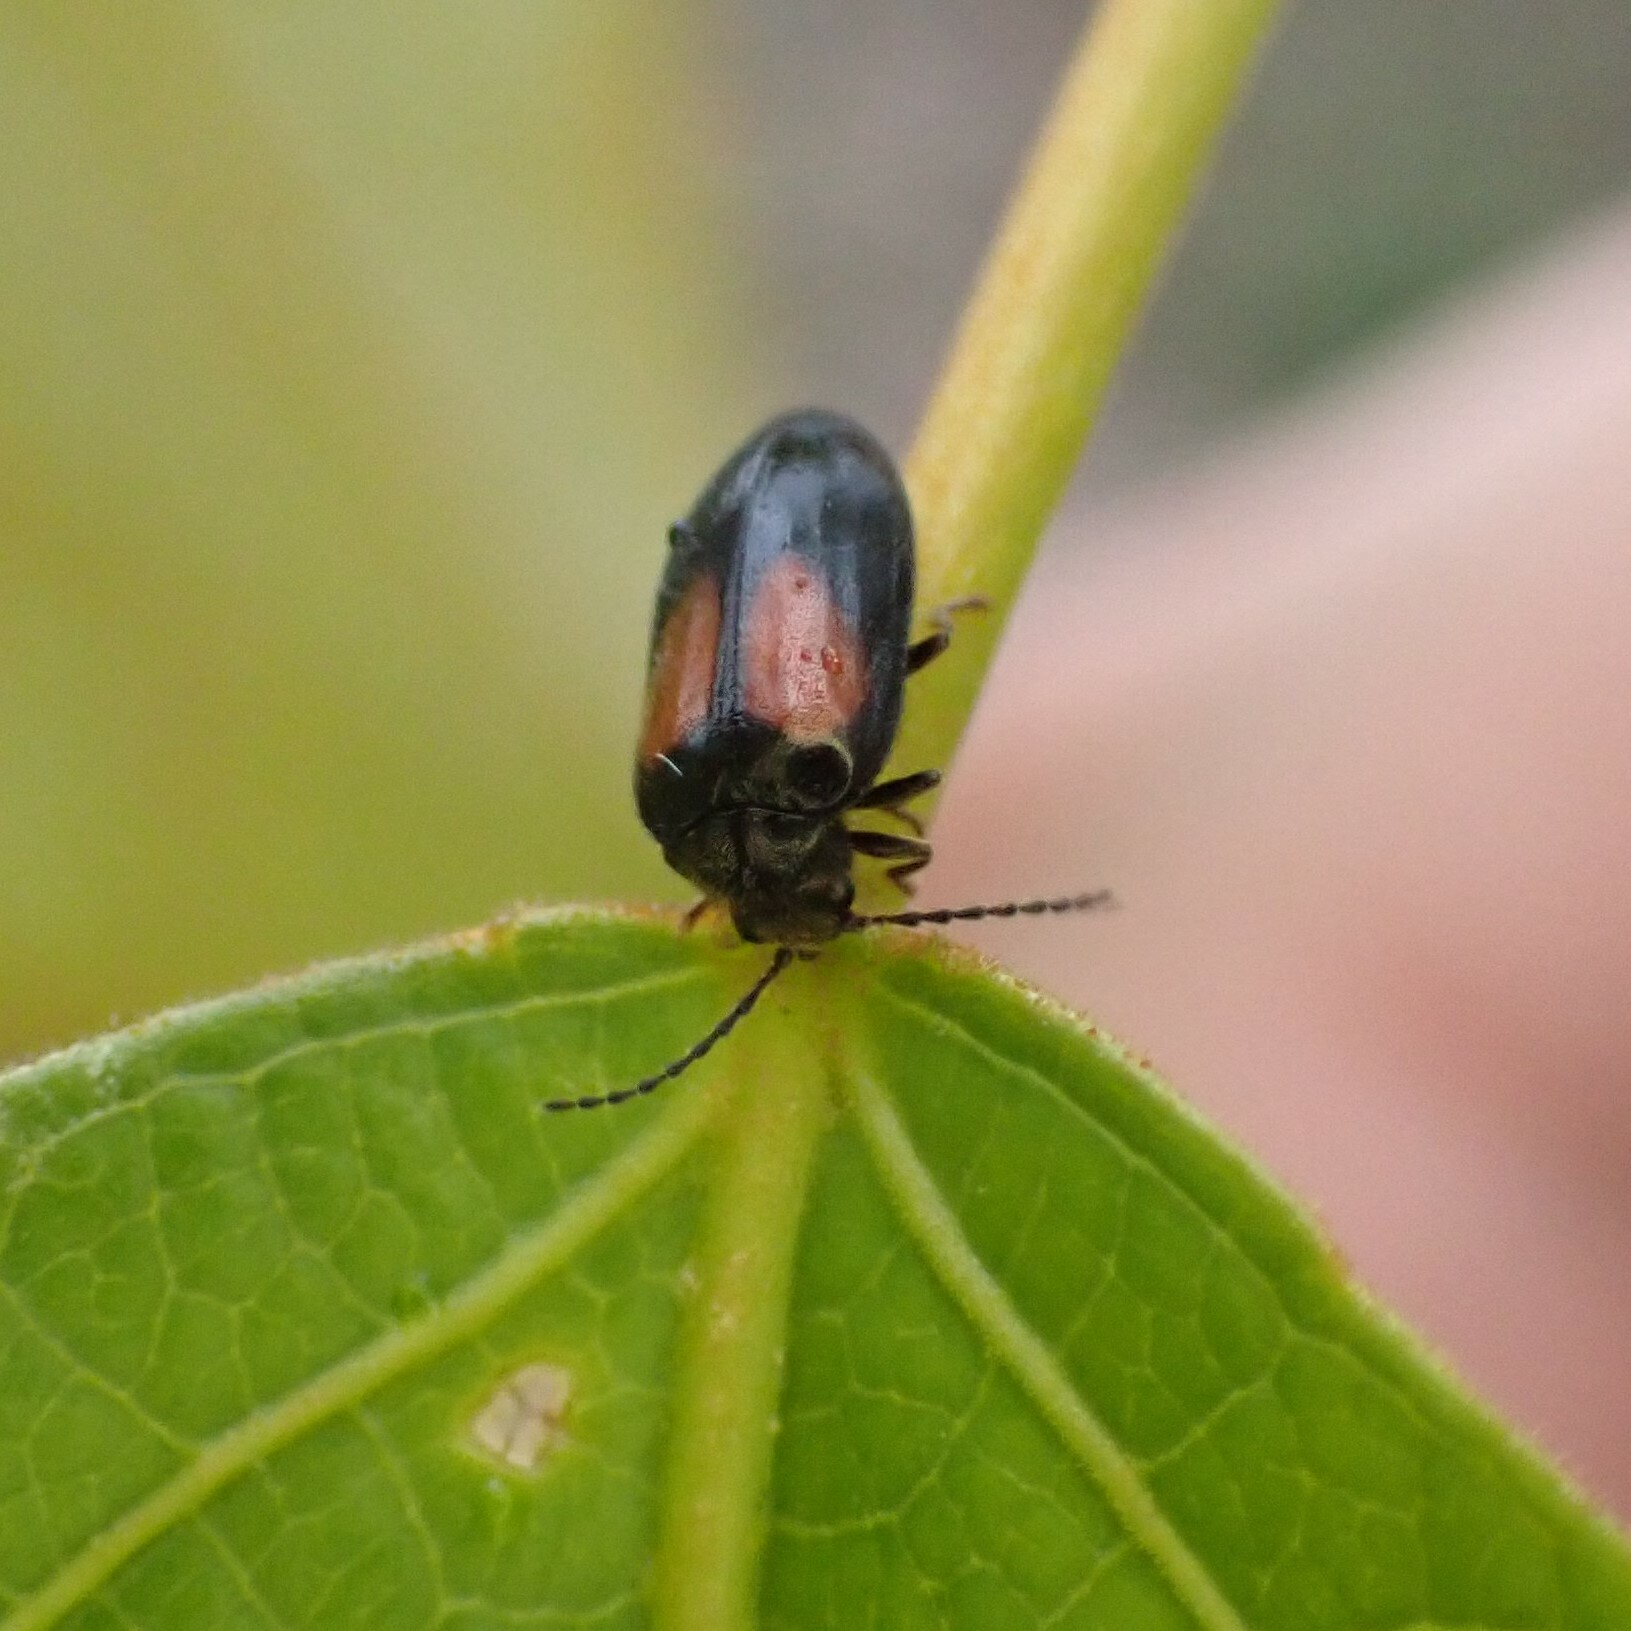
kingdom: Animalia
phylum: Arthropoda
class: Insecta
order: Coleoptera
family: Scirtidae
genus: Cyphon
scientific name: Cyphon concinnus
